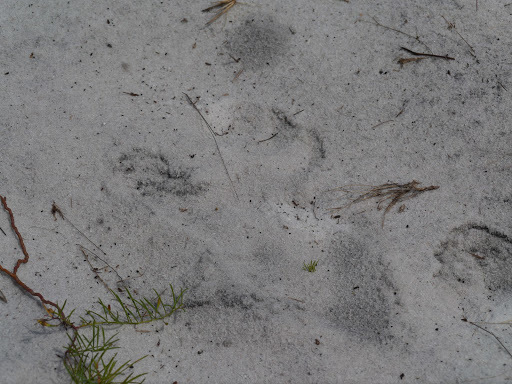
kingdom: Animalia
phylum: Chordata
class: Mammalia
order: Primates
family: Hominidae
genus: Pan
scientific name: Pan troglodytes
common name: Chimpanzee
